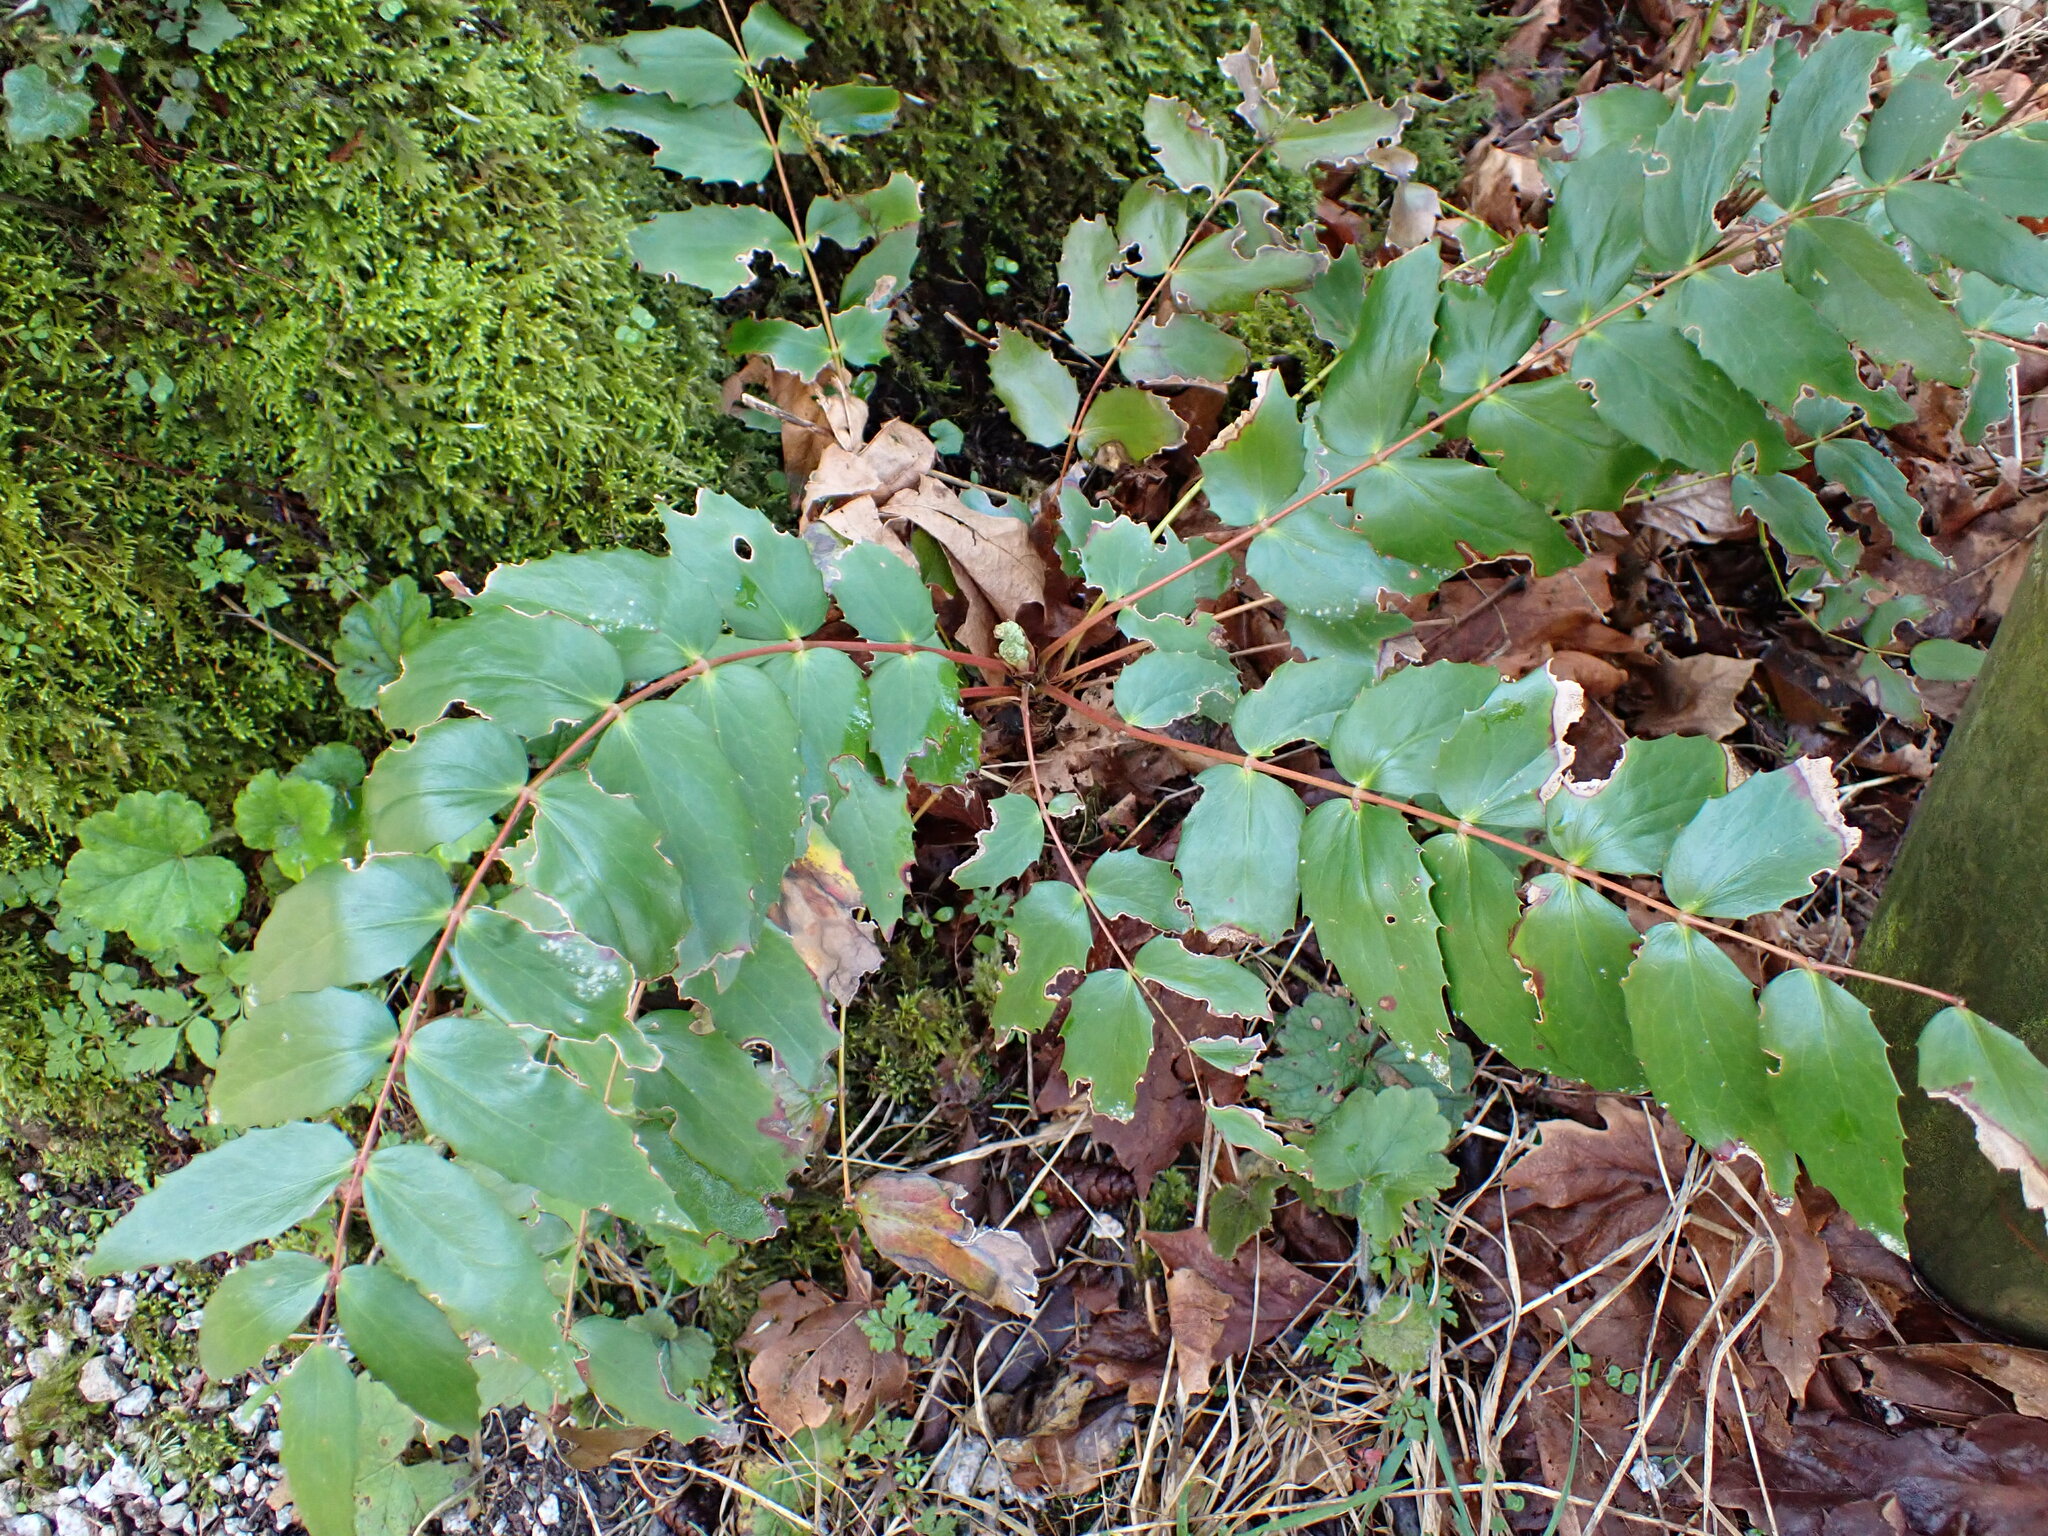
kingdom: Plantae
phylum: Tracheophyta
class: Magnoliopsida
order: Ranunculales
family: Berberidaceae
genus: Mahonia
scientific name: Mahonia nervosa
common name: Cascade oregon-grape
